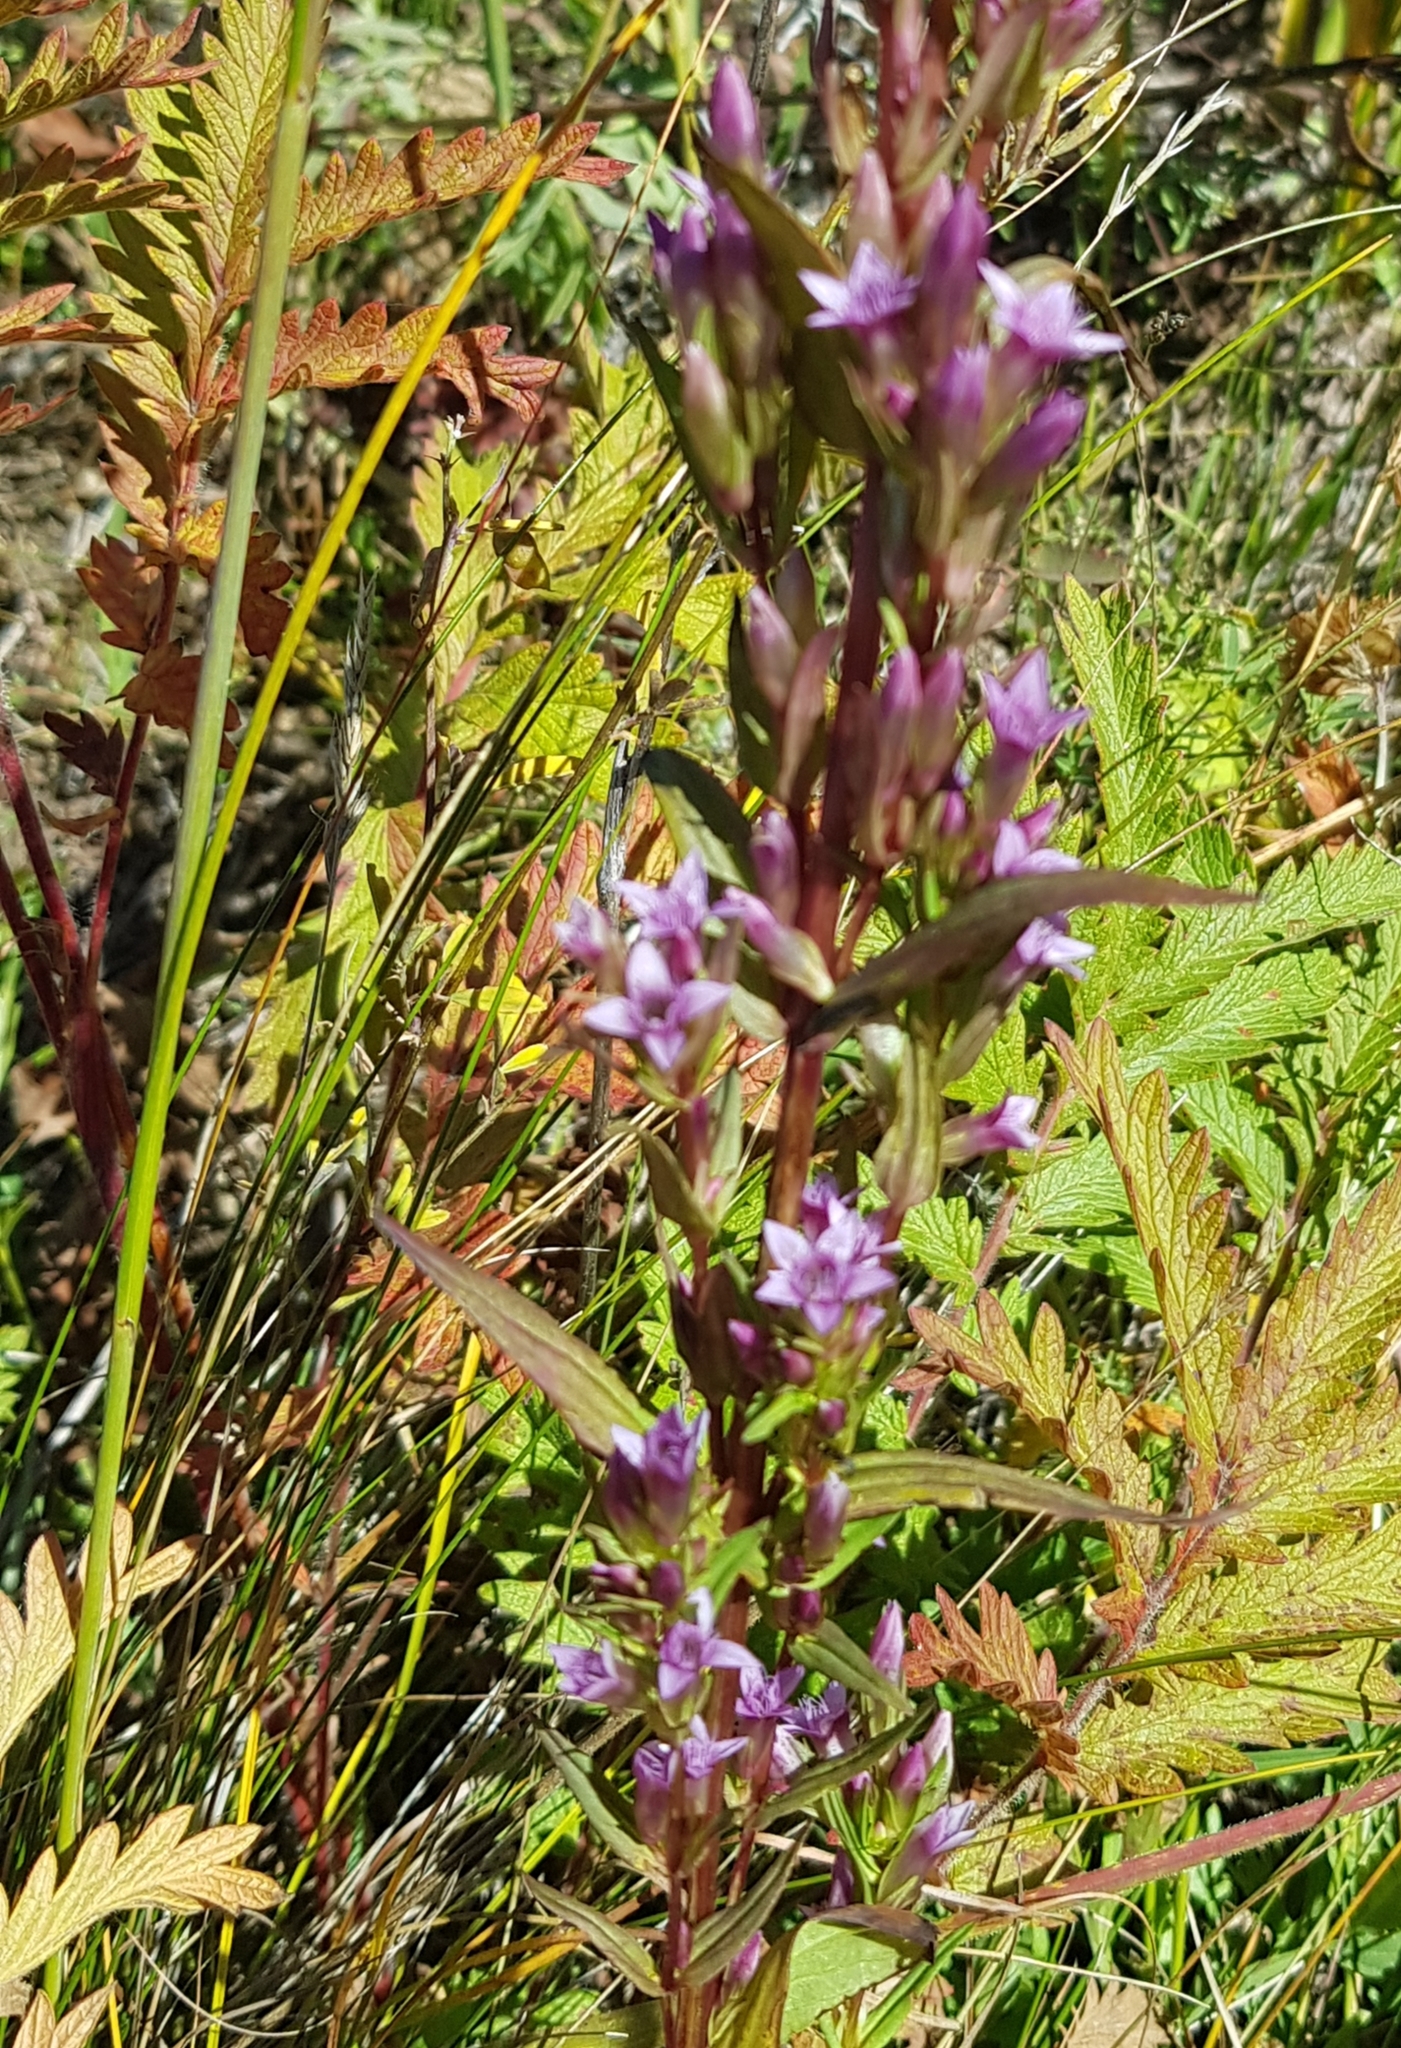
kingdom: Plantae
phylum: Tracheophyta
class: Magnoliopsida
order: Gentianales
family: Gentianaceae
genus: Gentianella
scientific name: Gentianella amarella
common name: Autumn gentian
